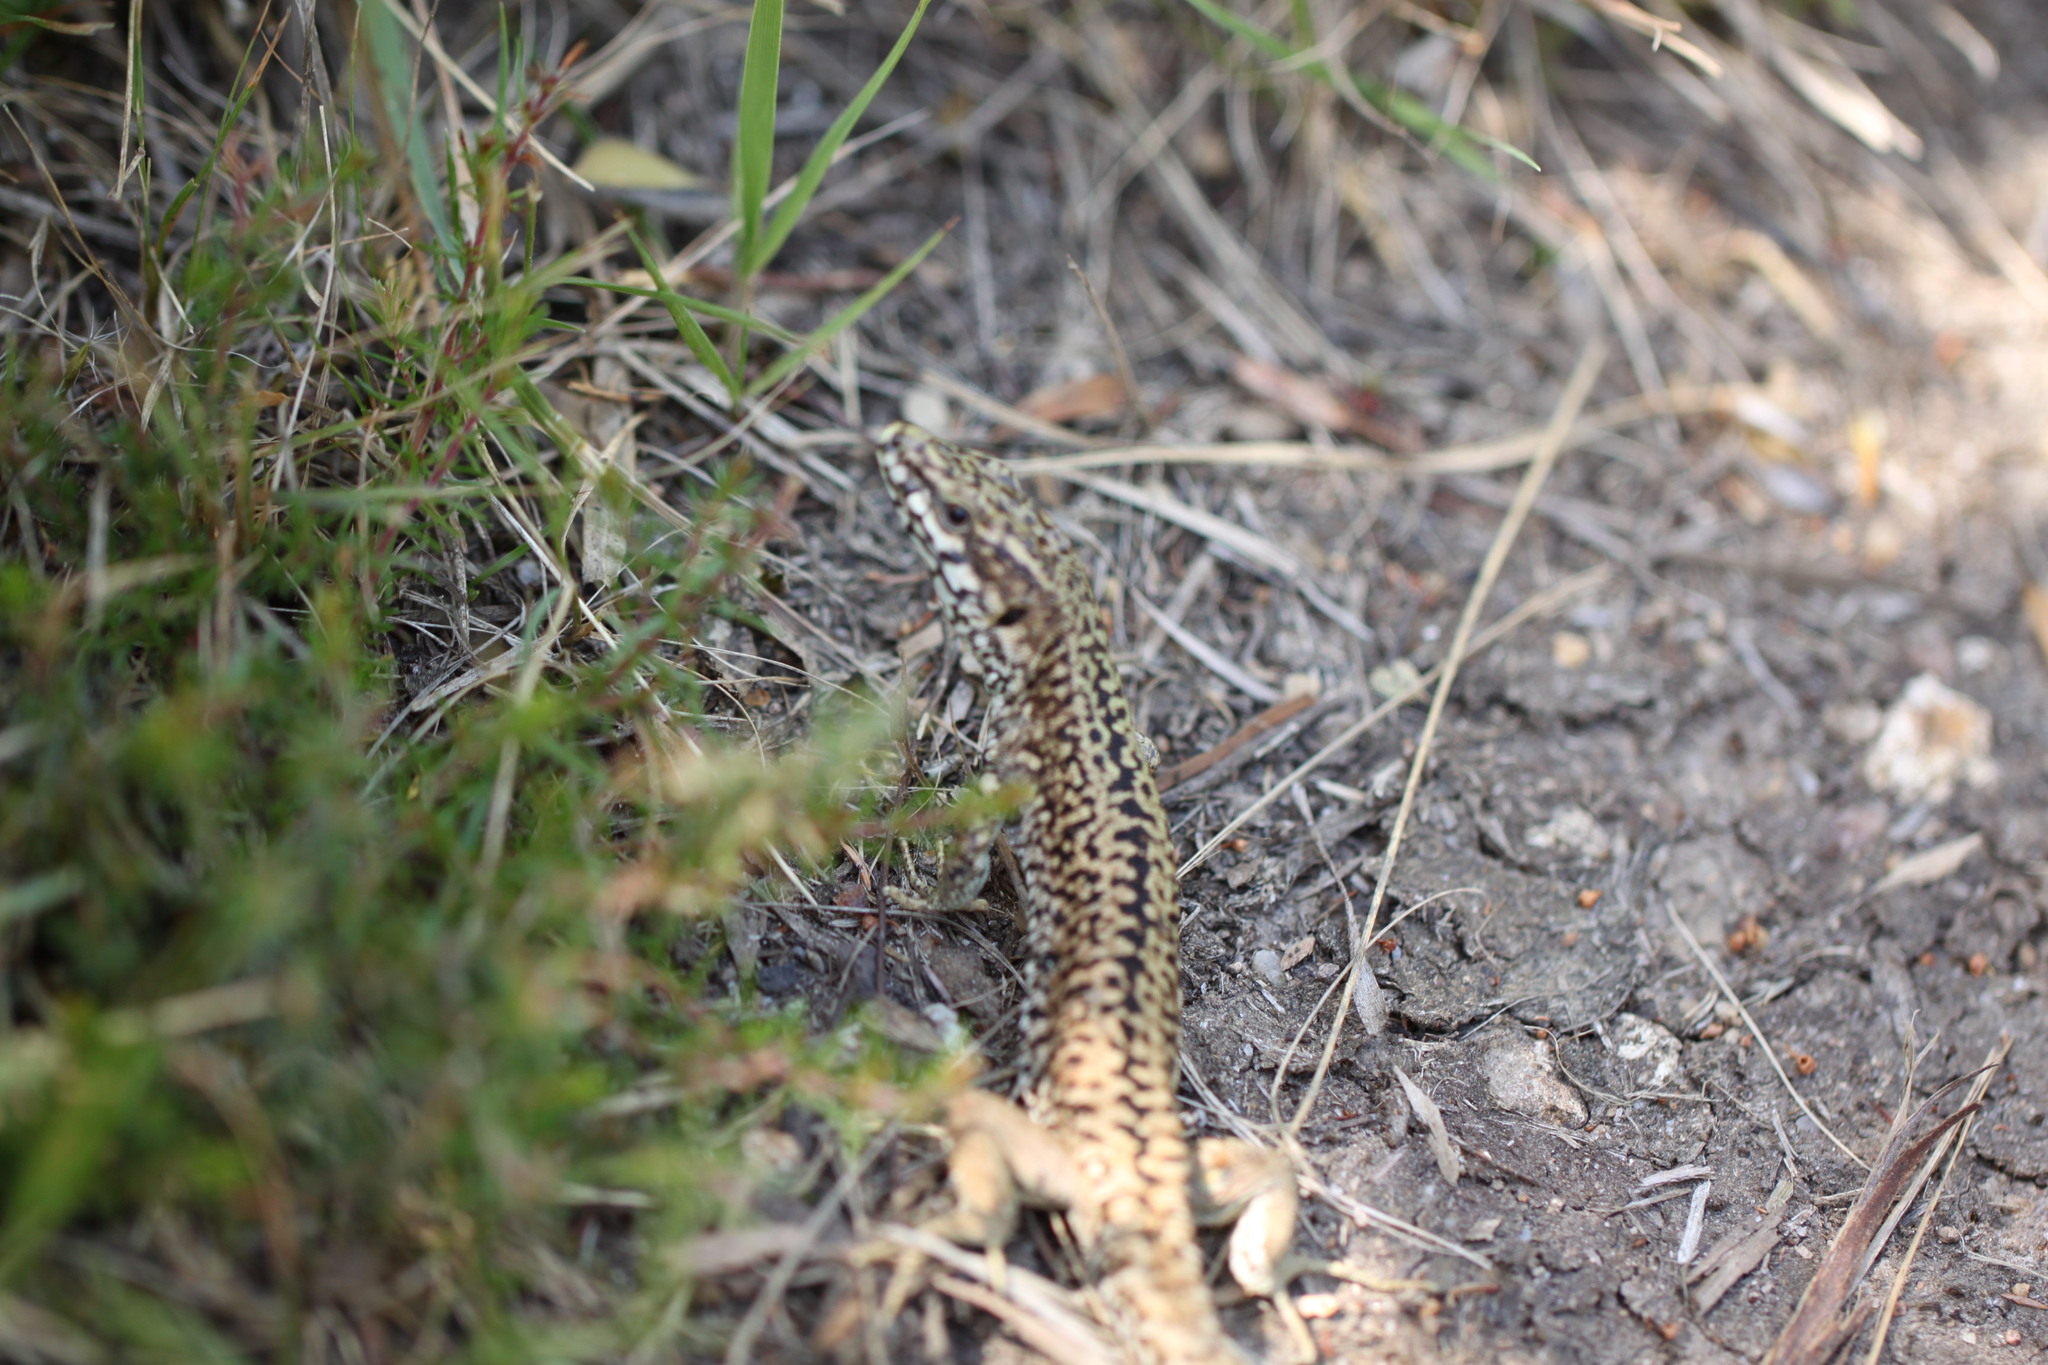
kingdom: Animalia
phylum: Chordata
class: Squamata
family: Lacertidae
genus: Podarcis
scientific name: Podarcis muralis
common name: Common wall lizard
